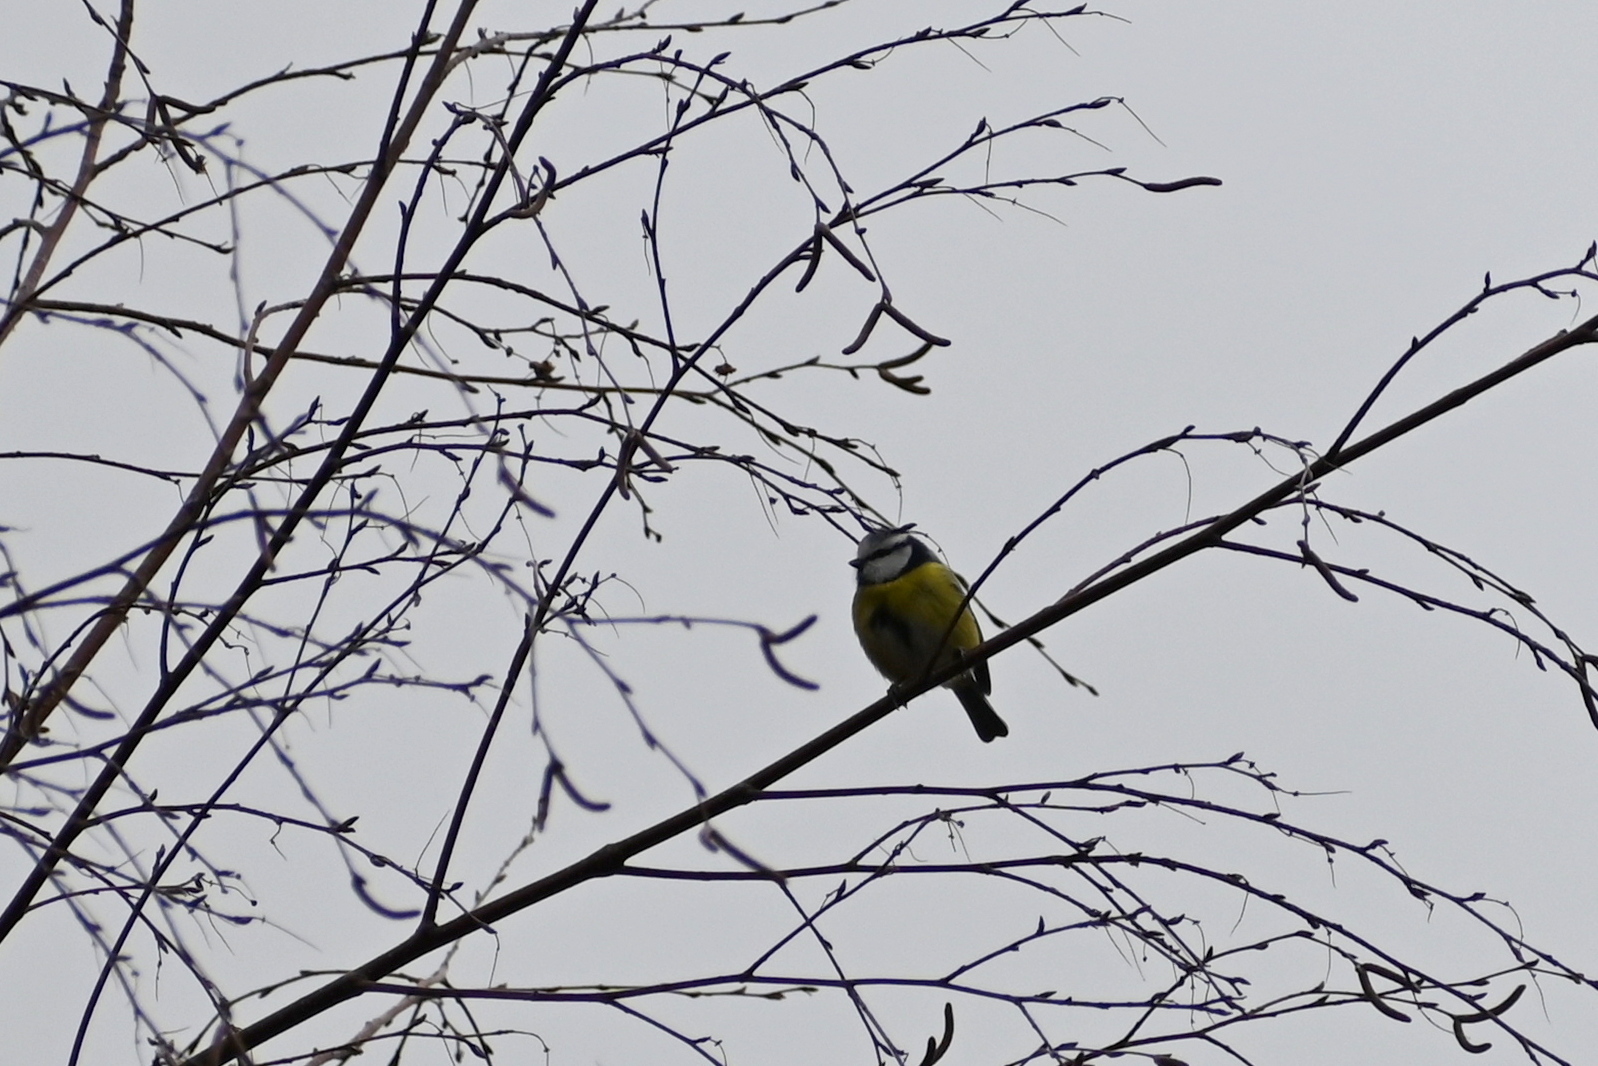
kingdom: Animalia
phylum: Chordata
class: Aves
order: Passeriformes
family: Paridae
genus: Cyanistes
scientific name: Cyanistes caeruleus
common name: Eurasian blue tit
